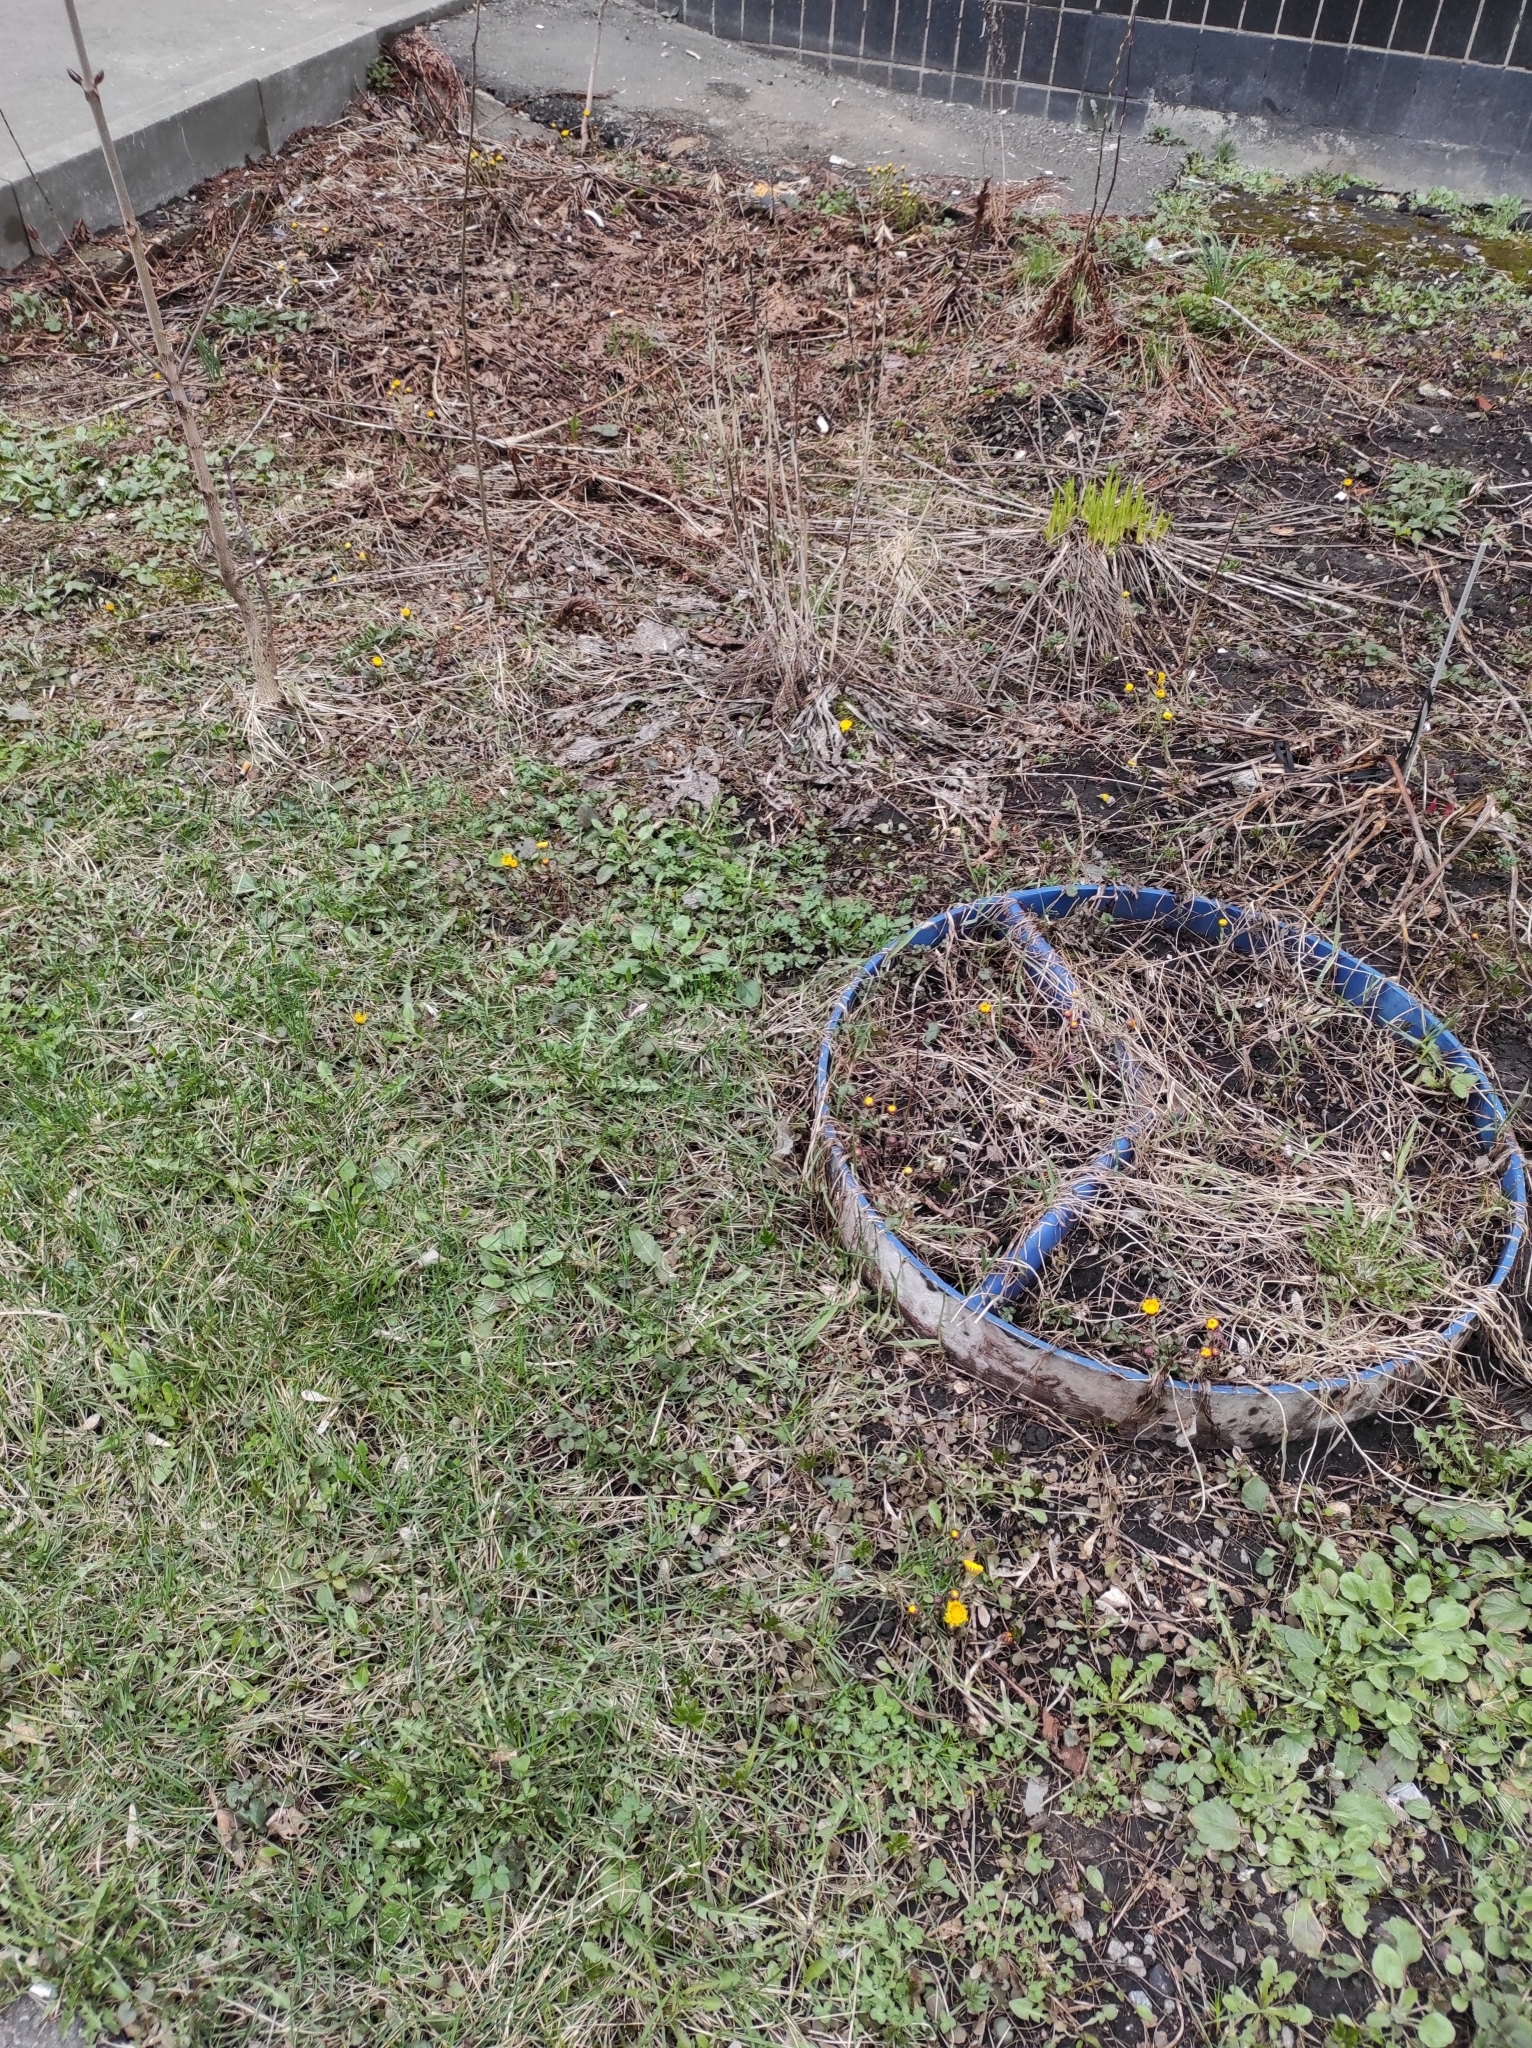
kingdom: Plantae
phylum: Tracheophyta
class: Magnoliopsida
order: Asterales
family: Asteraceae
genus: Tussilago
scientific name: Tussilago farfara
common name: Coltsfoot
